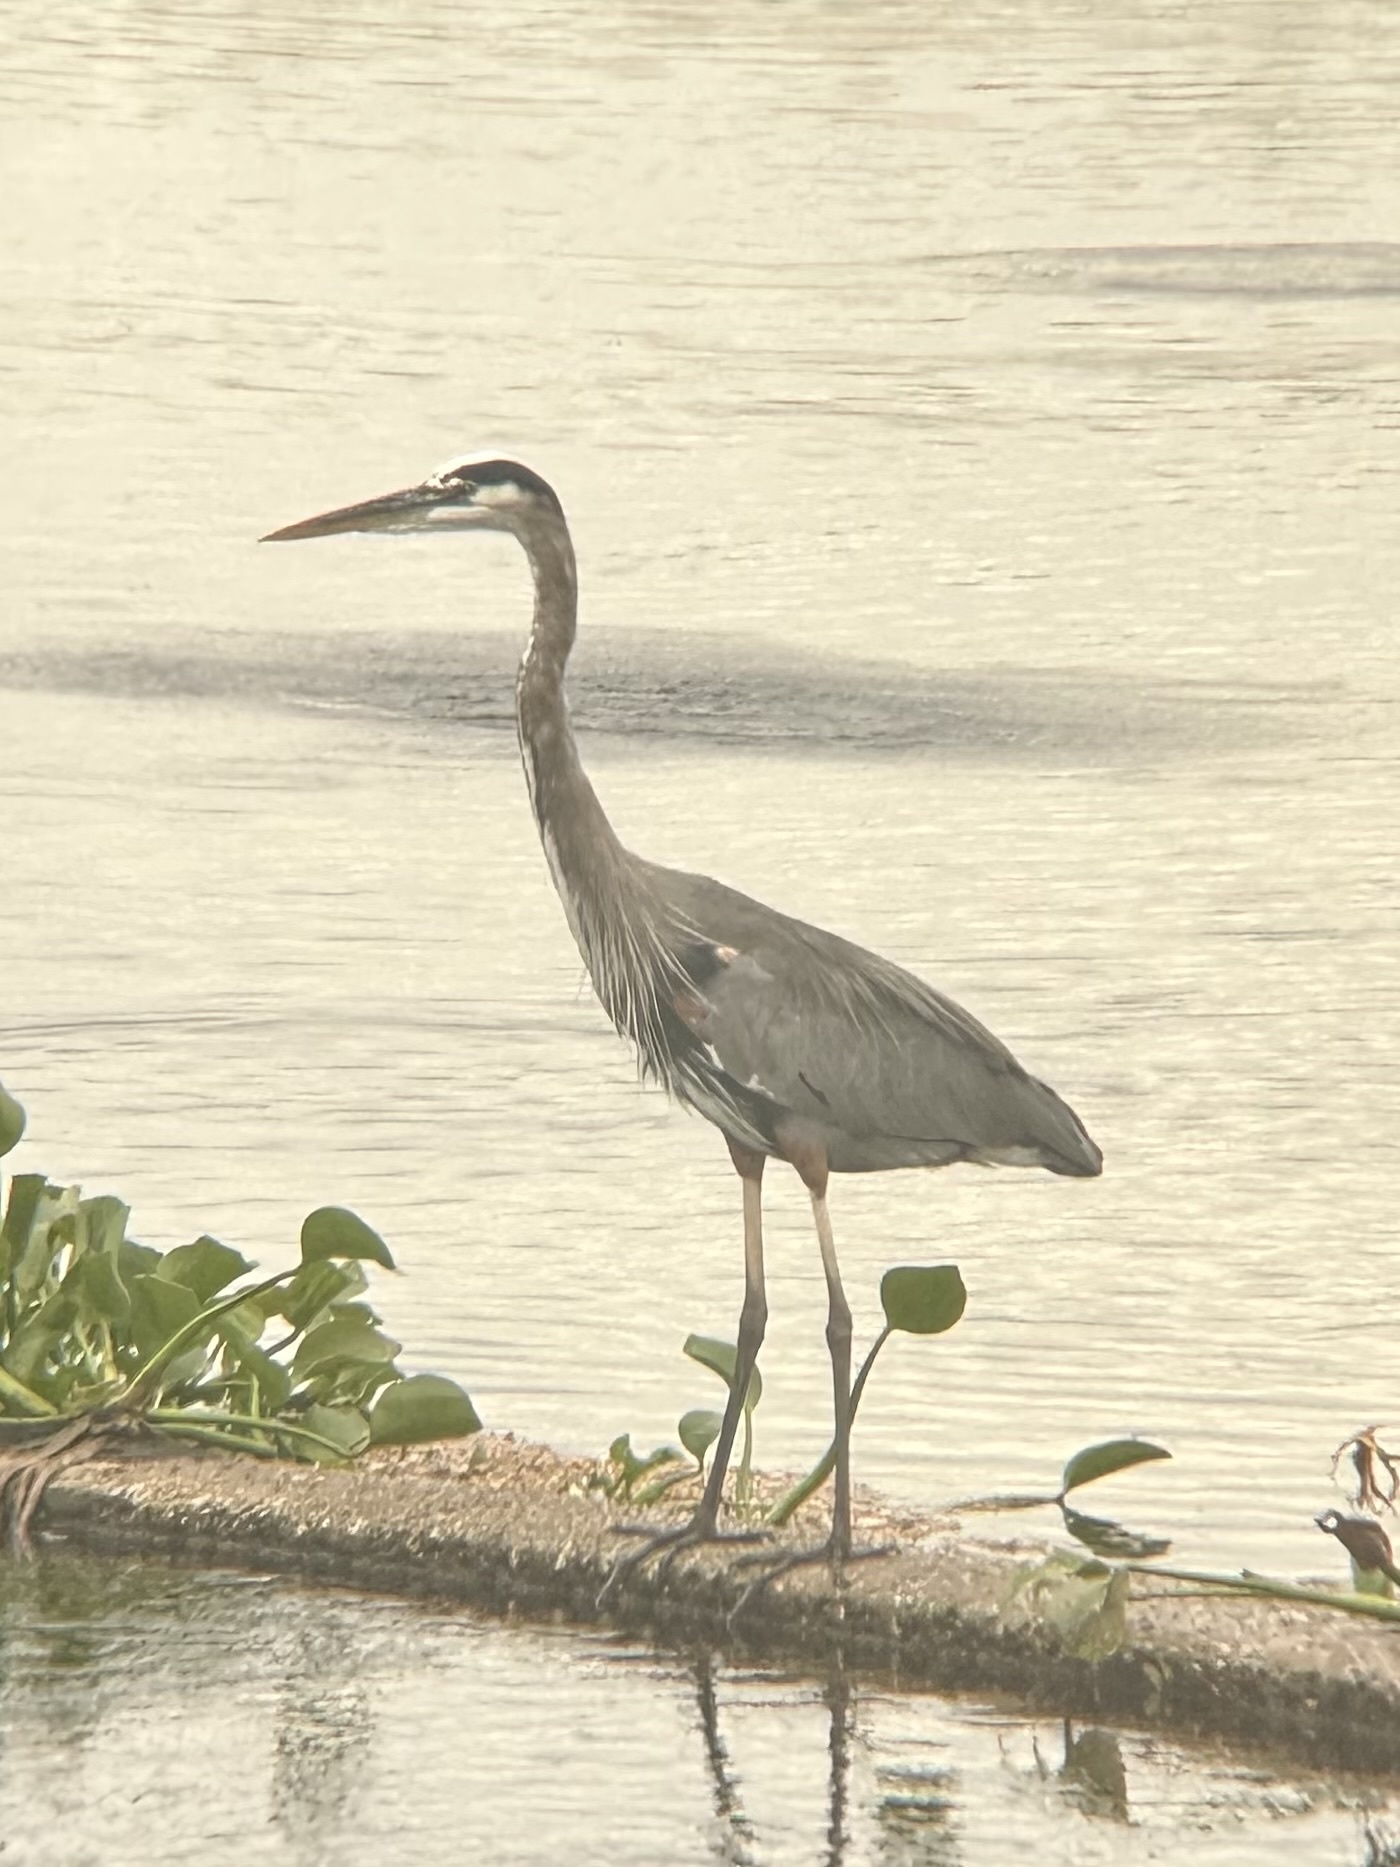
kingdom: Animalia
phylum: Chordata
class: Aves
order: Pelecaniformes
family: Ardeidae
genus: Ardea
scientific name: Ardea herodias
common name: Great blue heron
